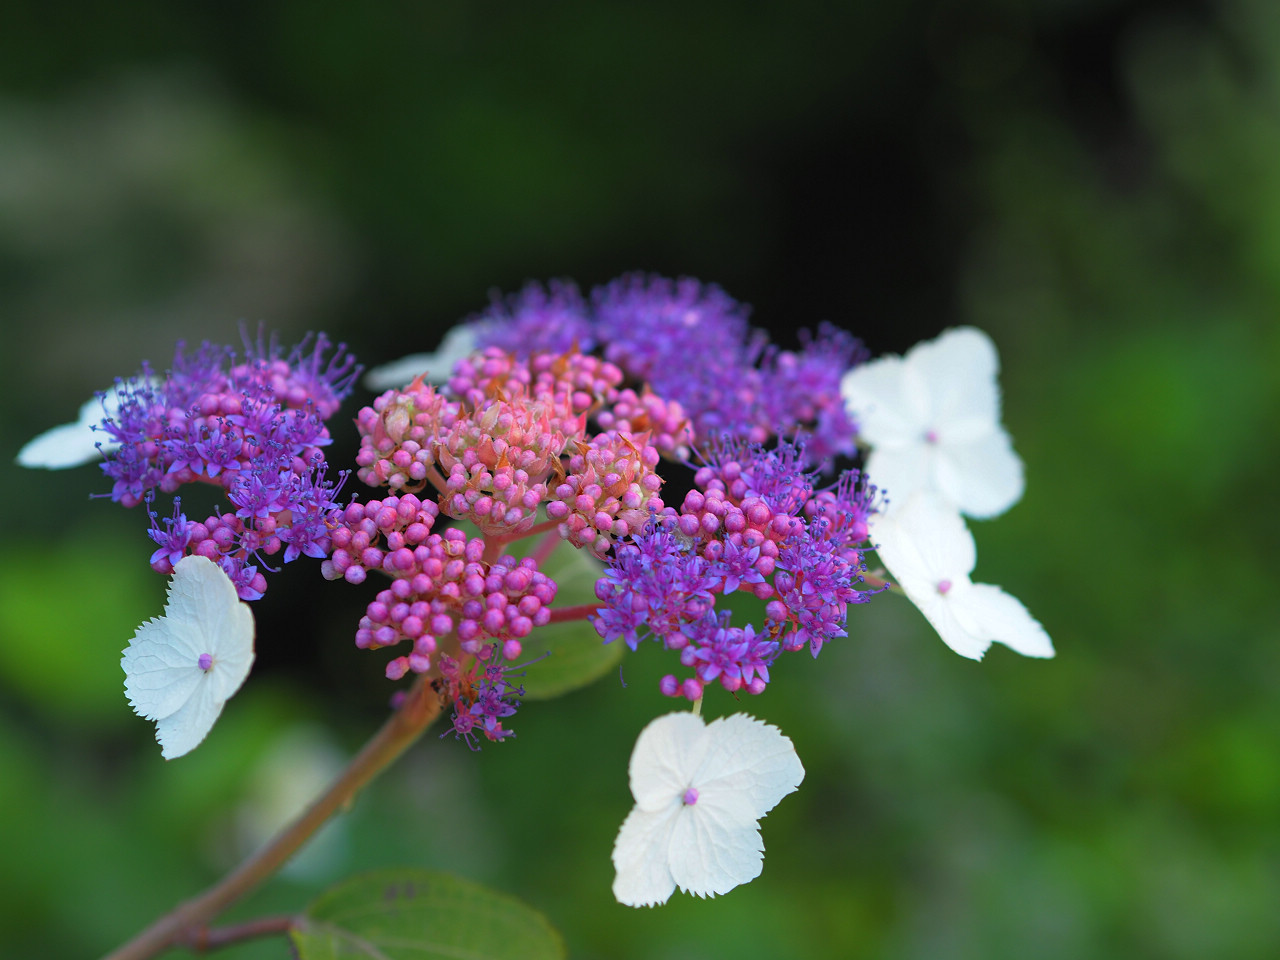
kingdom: Plantae
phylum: Tracheophyta
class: Magnoliopsida
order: Cornales
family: Hydrangeaceae
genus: Hydrangea
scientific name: Hydrangea aspera
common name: Rough-leaf hydrangea
